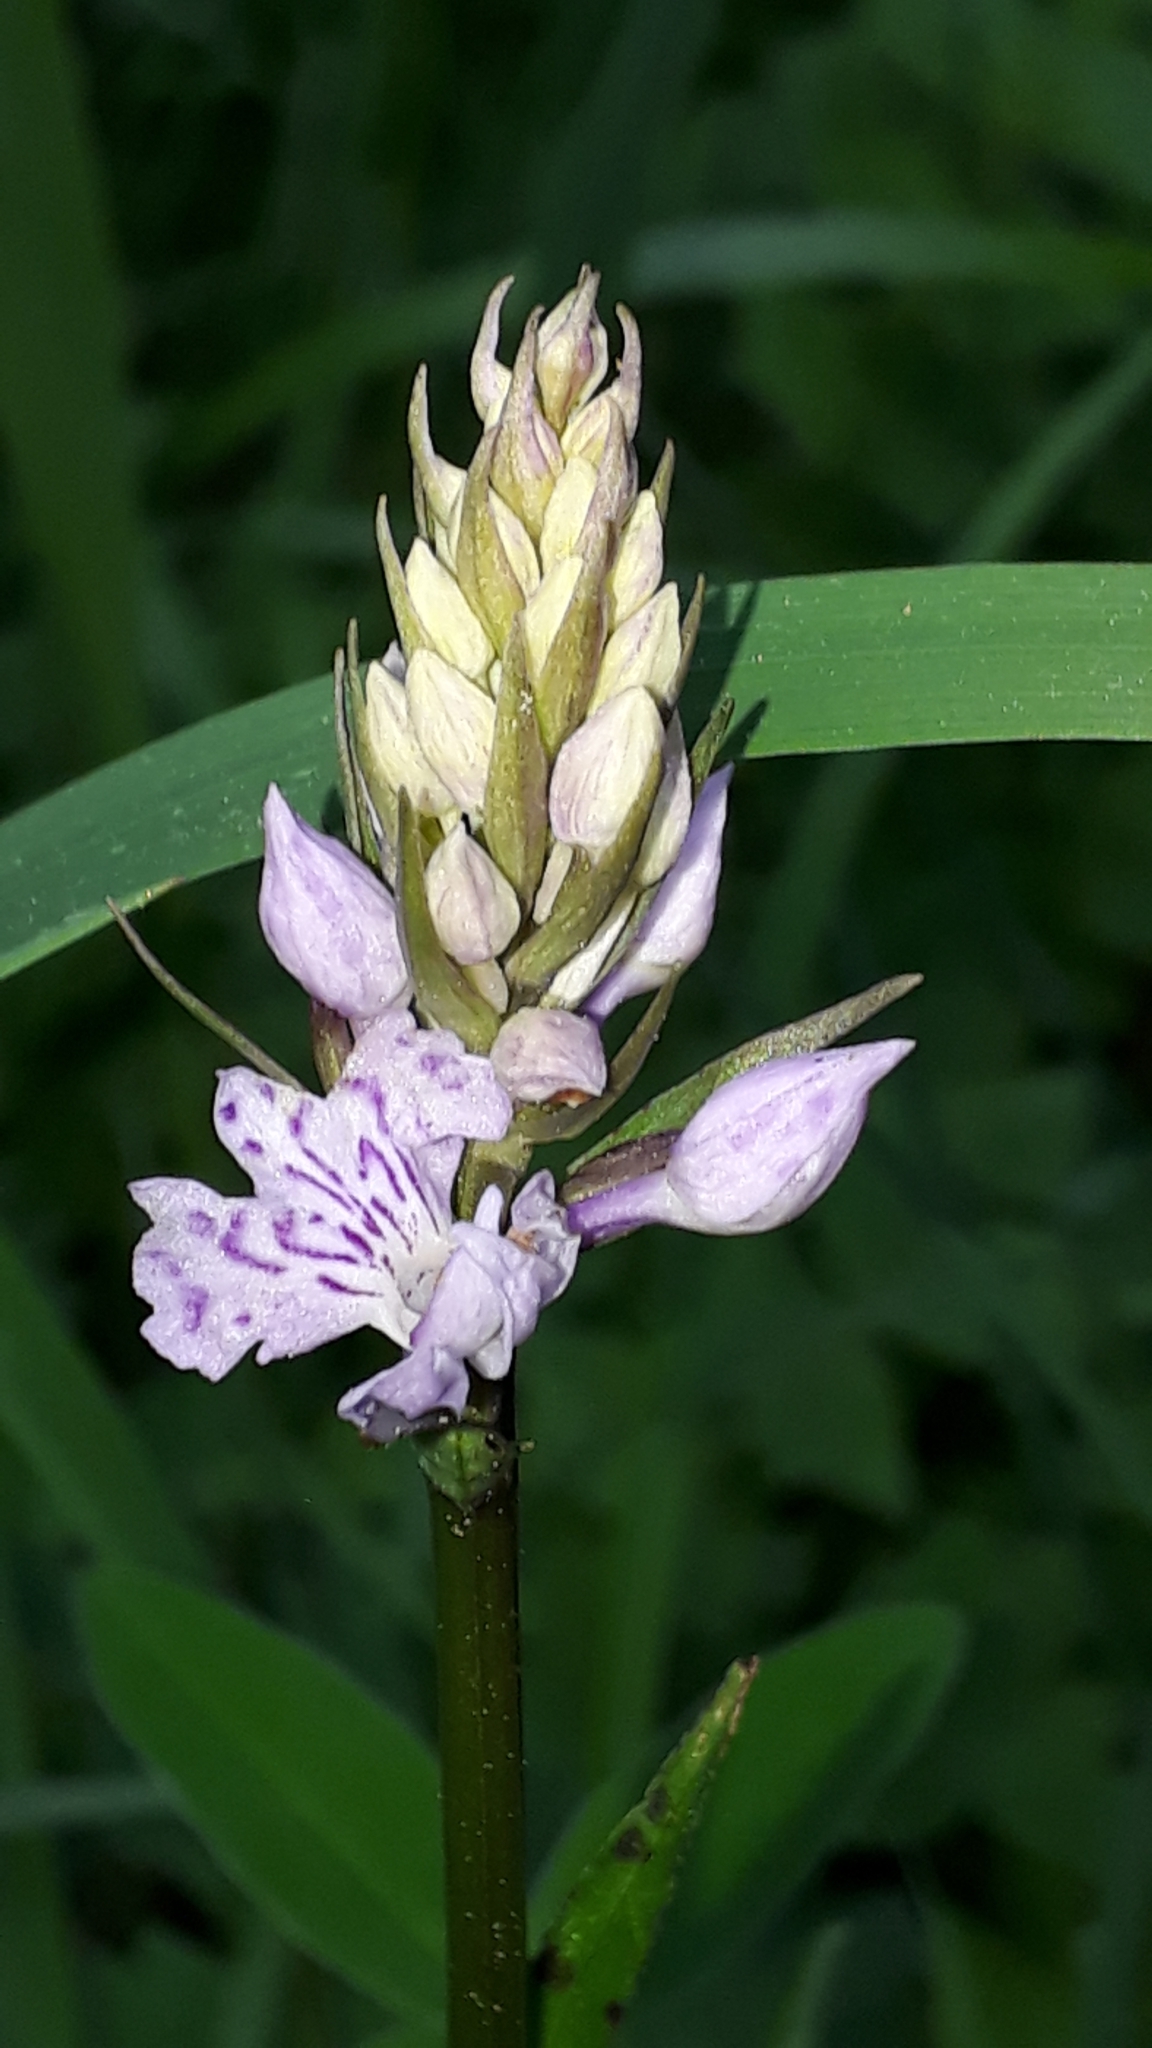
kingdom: Plantae
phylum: Tracheophyta
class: Liliopsida
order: Asparagales
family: Orchidaceae
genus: Dactylorhiza
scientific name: Dactylorhiza maculata
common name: Heath spotted-orchid
